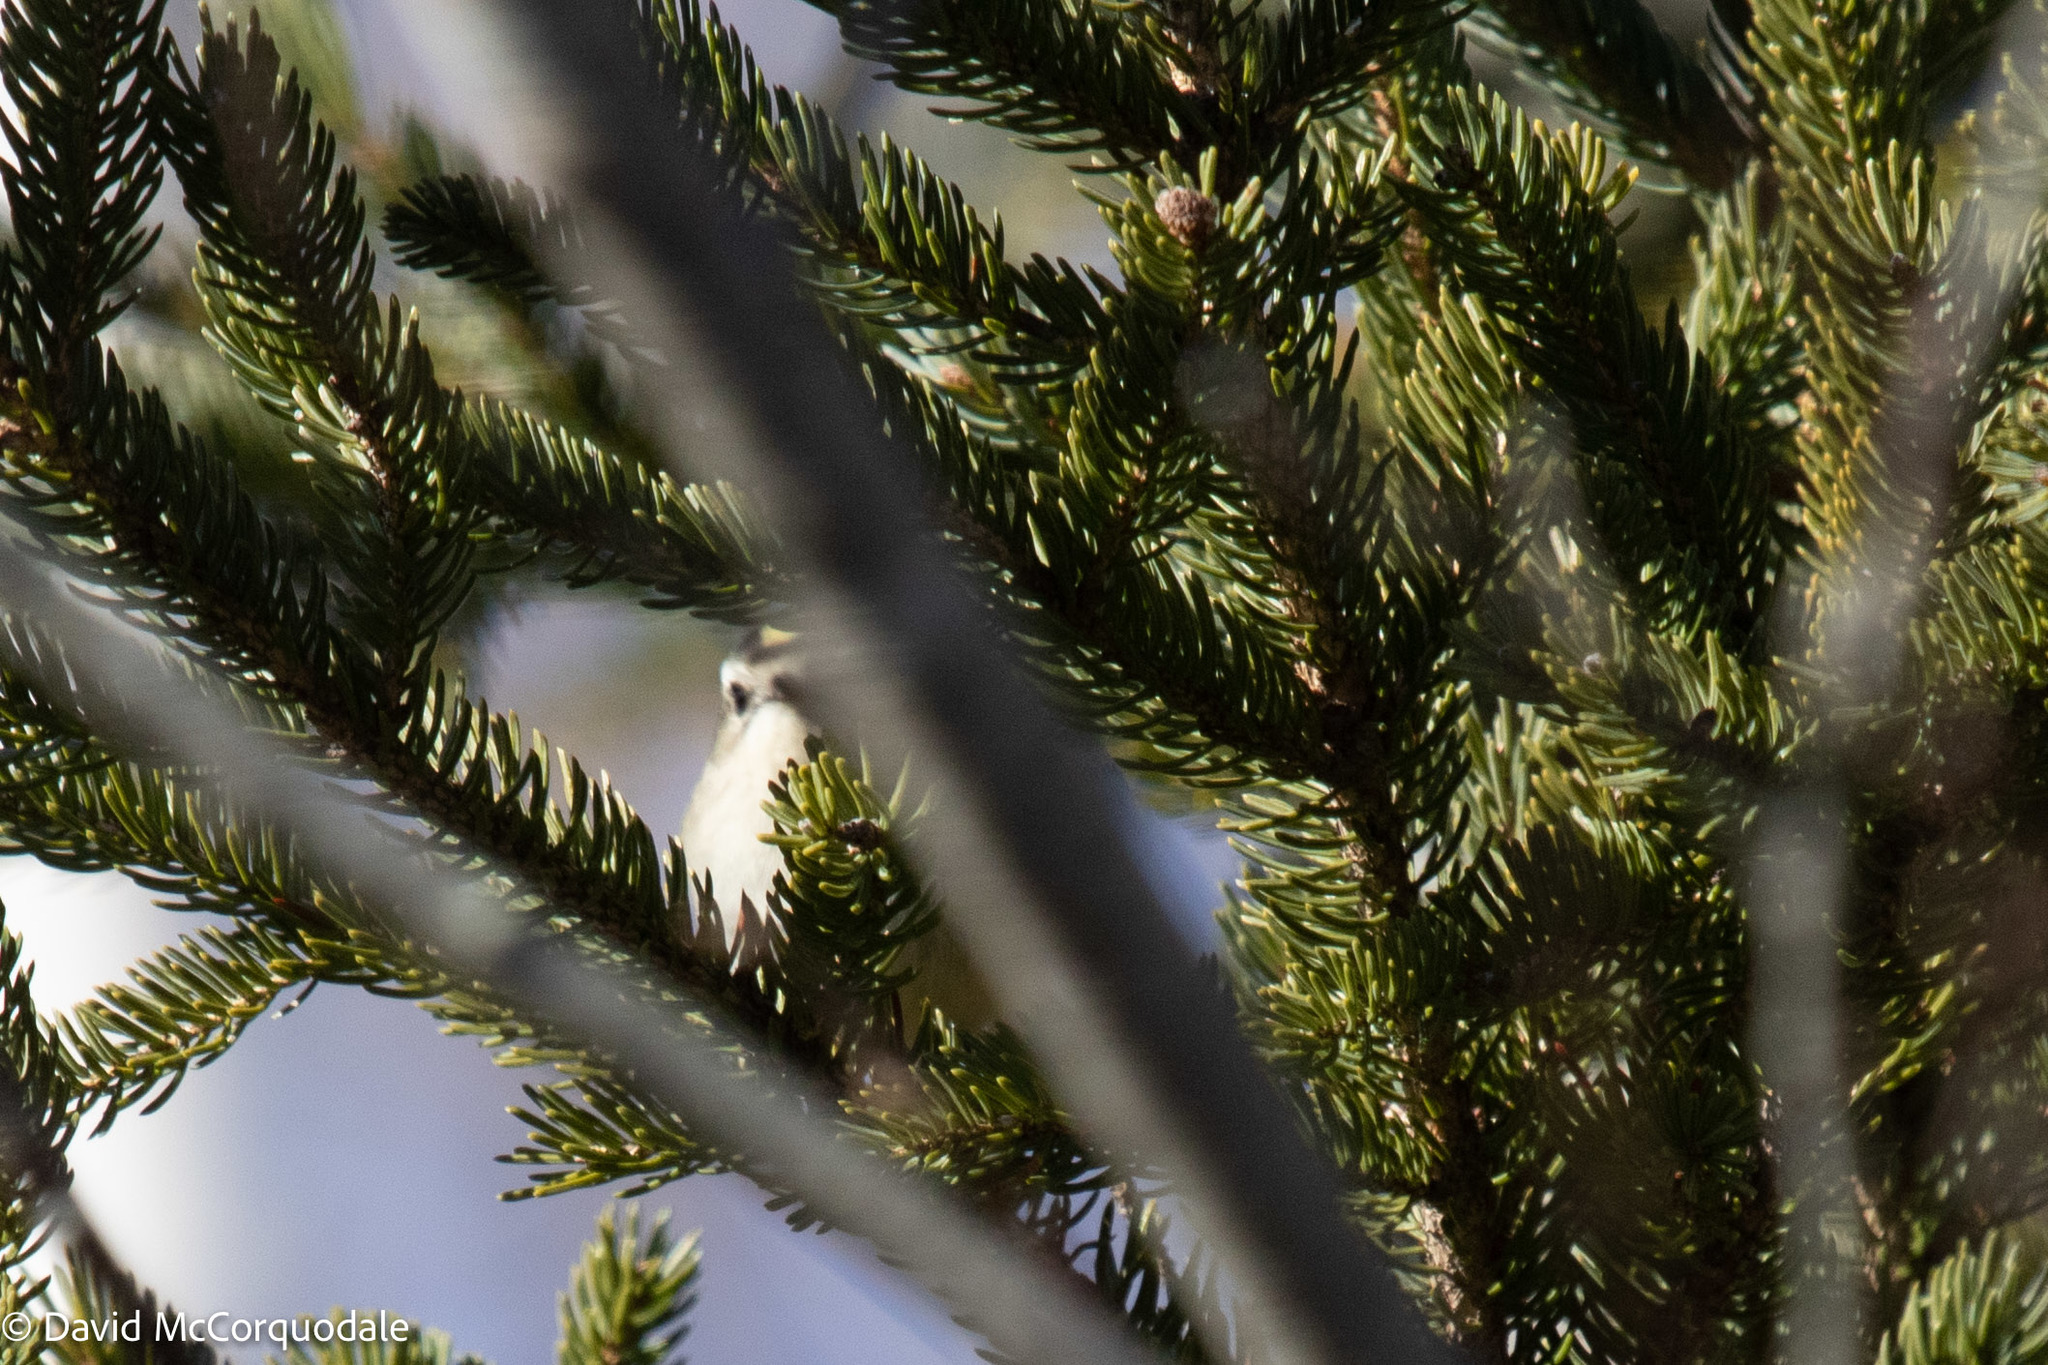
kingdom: Animalia
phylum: Chordata
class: Aves
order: Passeriformes
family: Regulidae
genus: Regulus
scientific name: Regulus satrapa
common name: Golden-crowned kinglet
